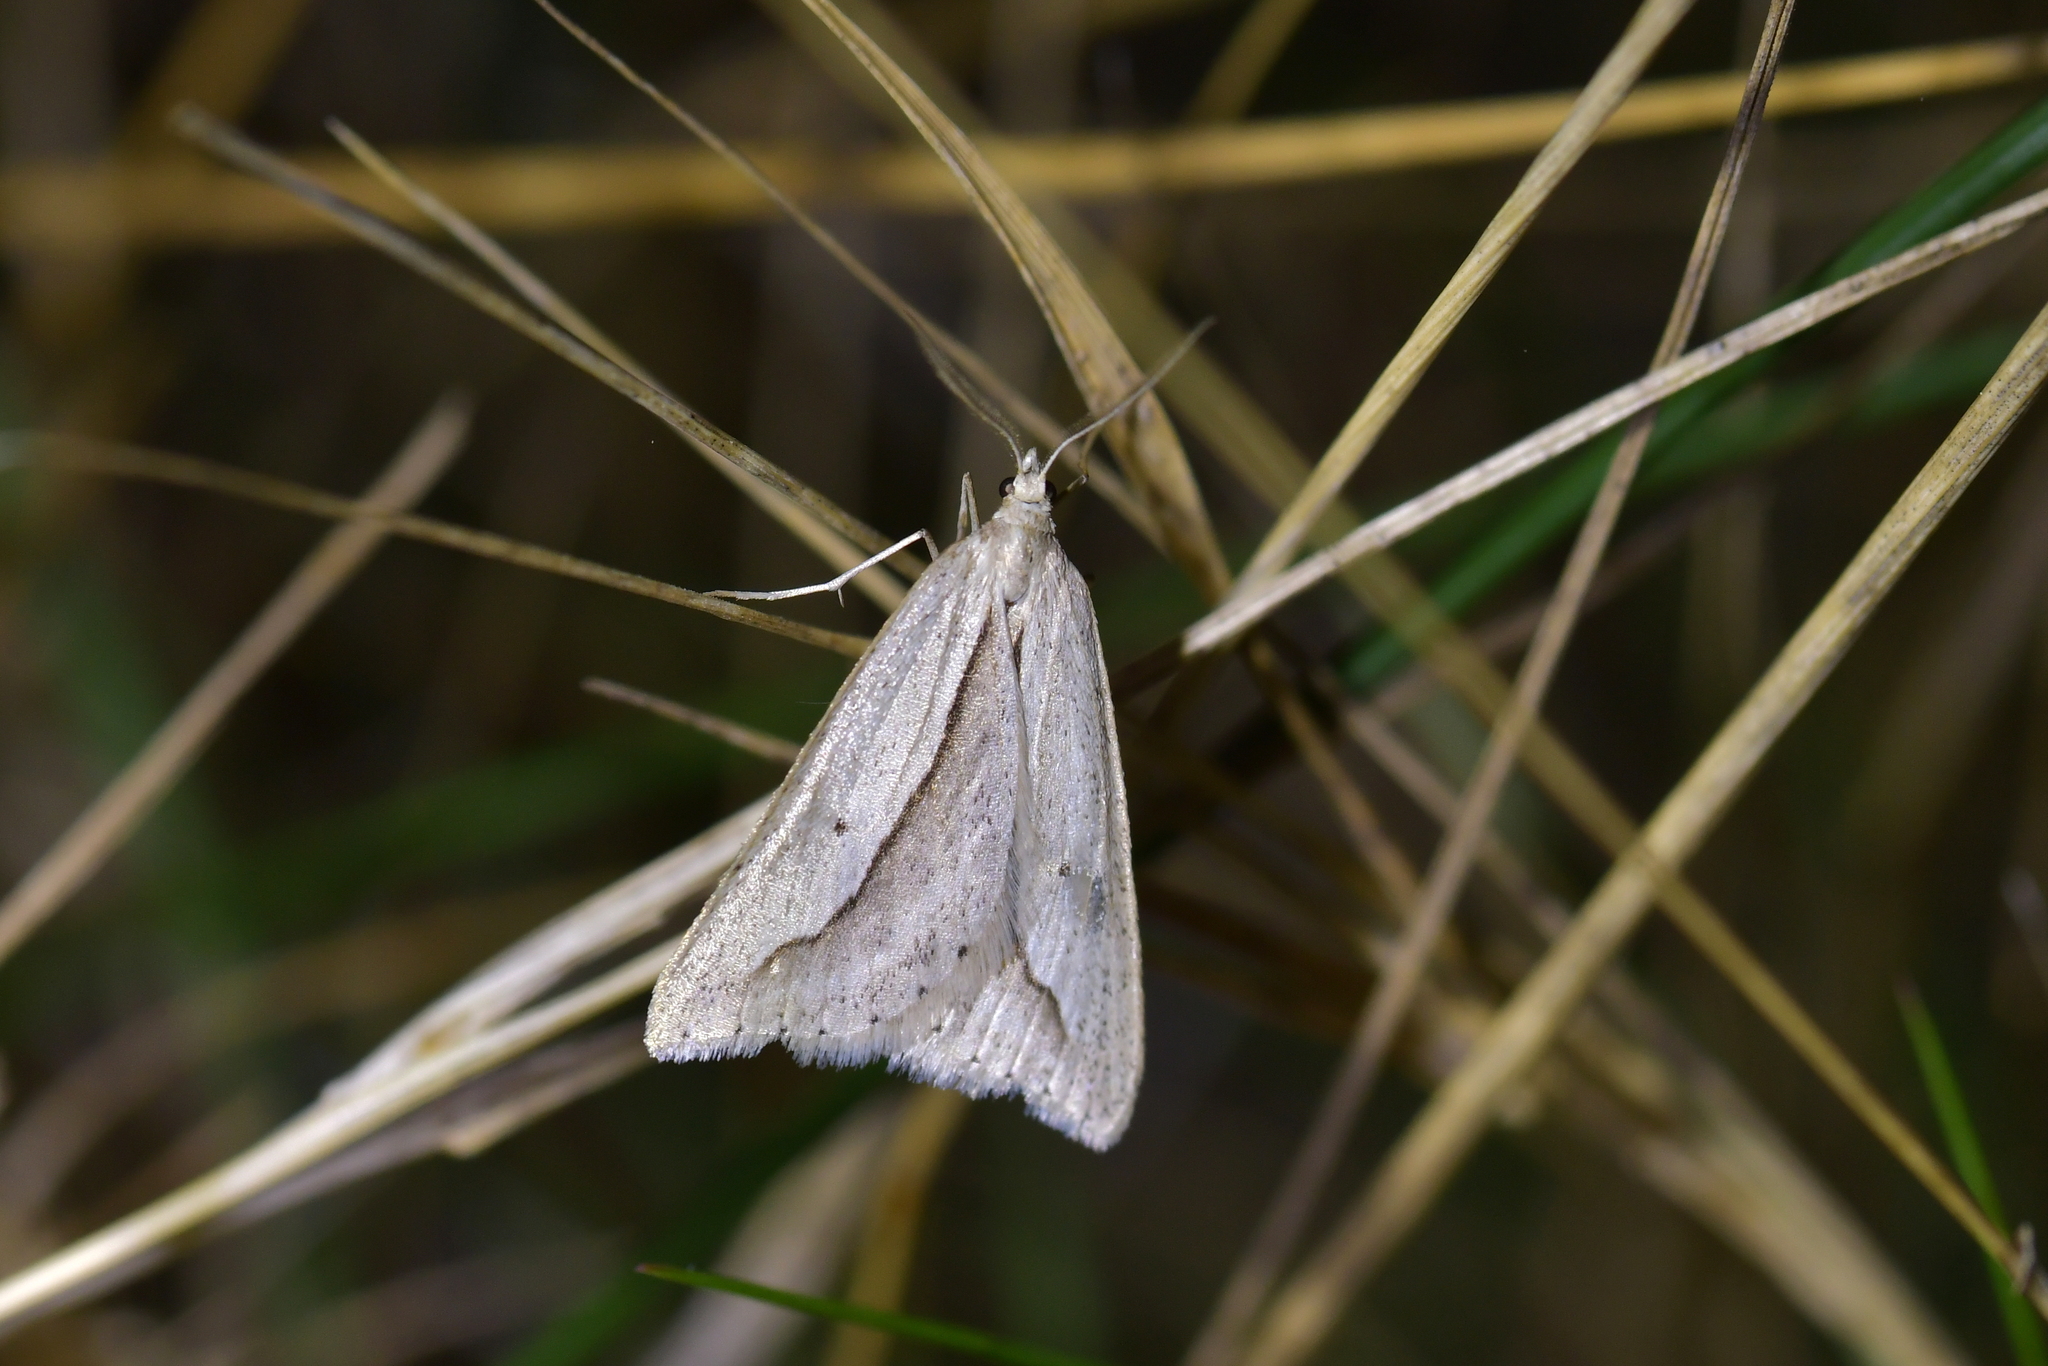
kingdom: Animalia
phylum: Arthropoda
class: Insecta
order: Lepidoptera
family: Geometridae
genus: Theoxena
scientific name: Theoxena scissaria
